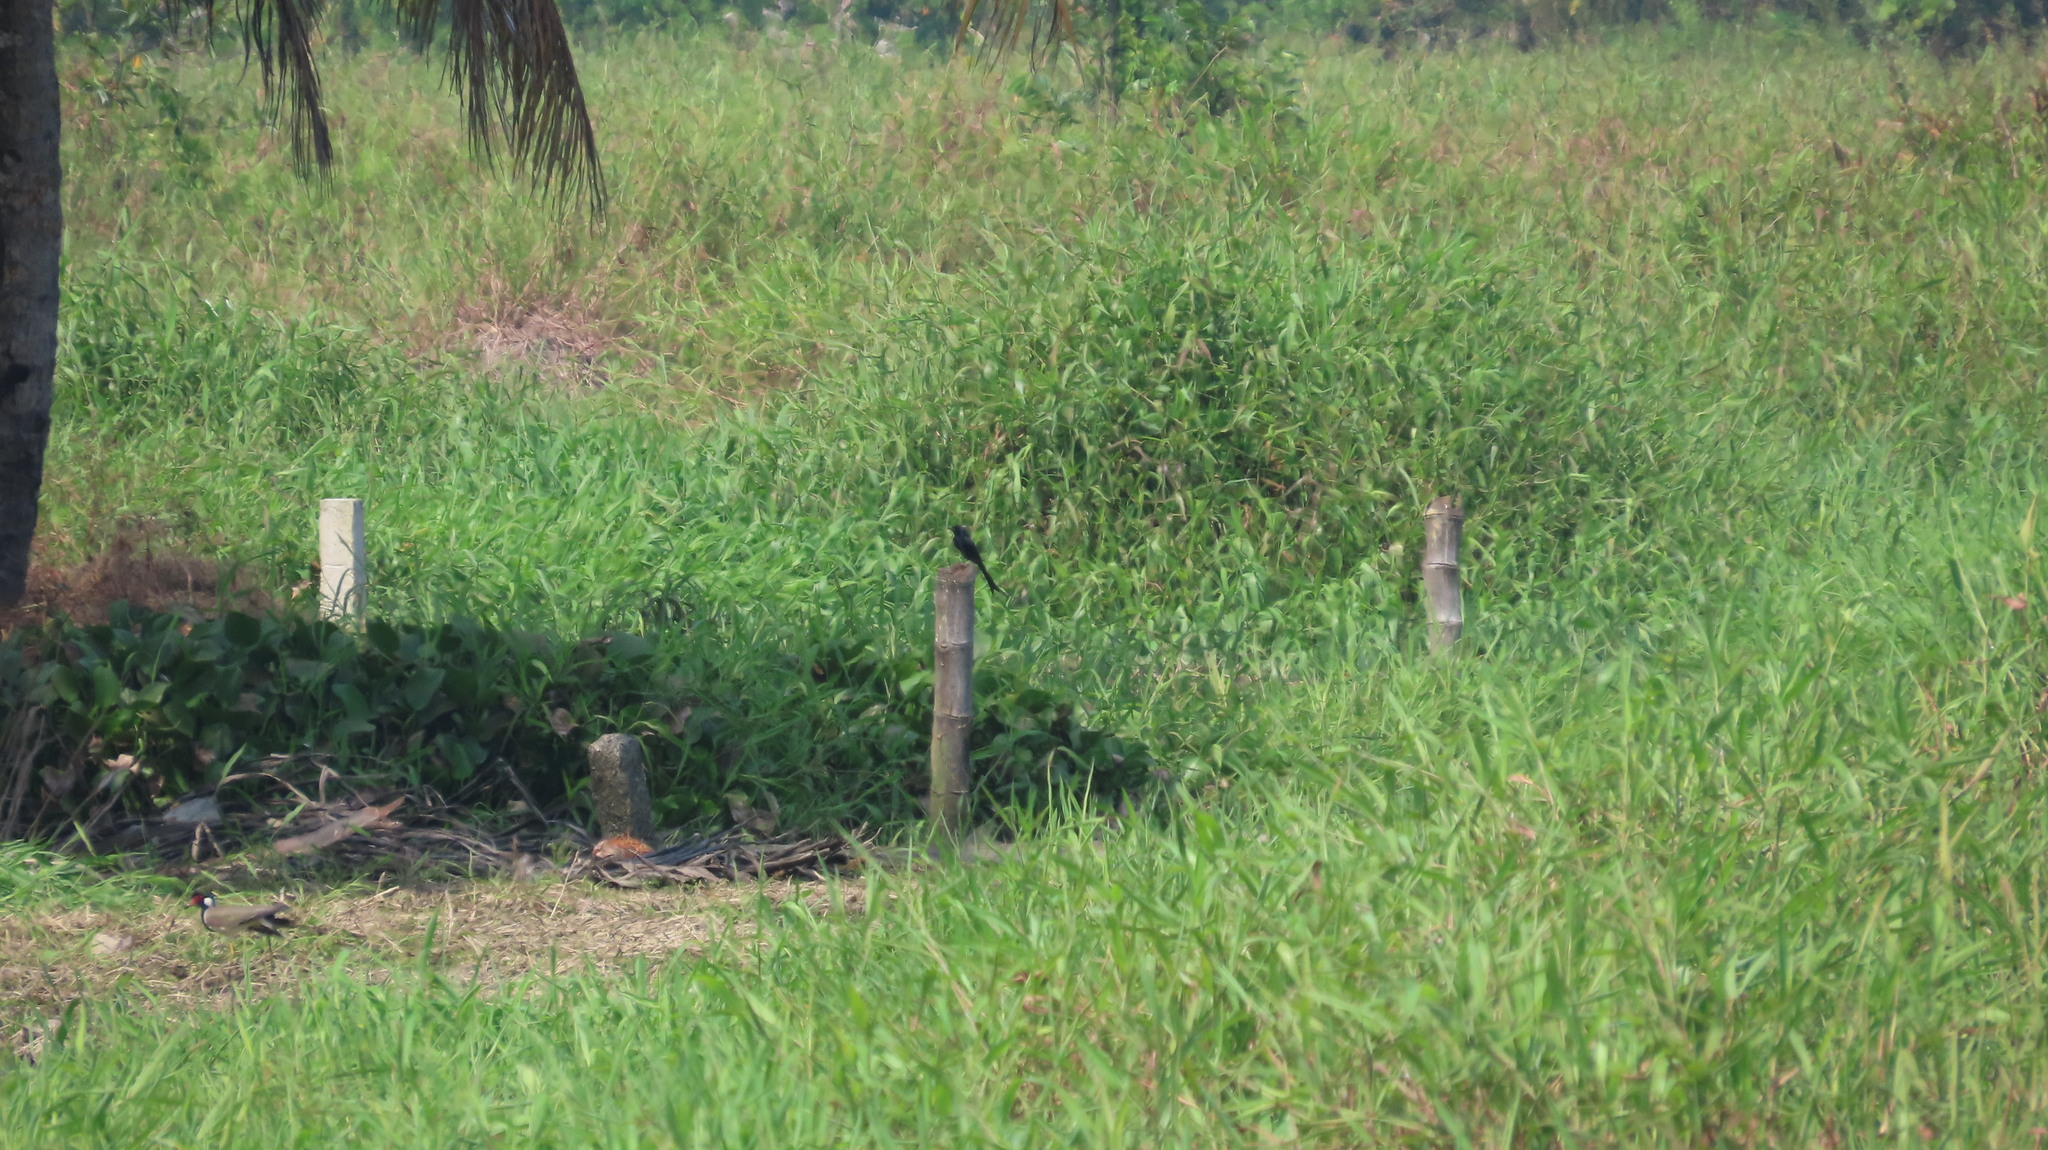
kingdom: Animalia
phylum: Chordata
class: Aves
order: Passeriformes
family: Dicruridae
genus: Dicrurus
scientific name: Dicrurus macrocercus
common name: Black drongo
